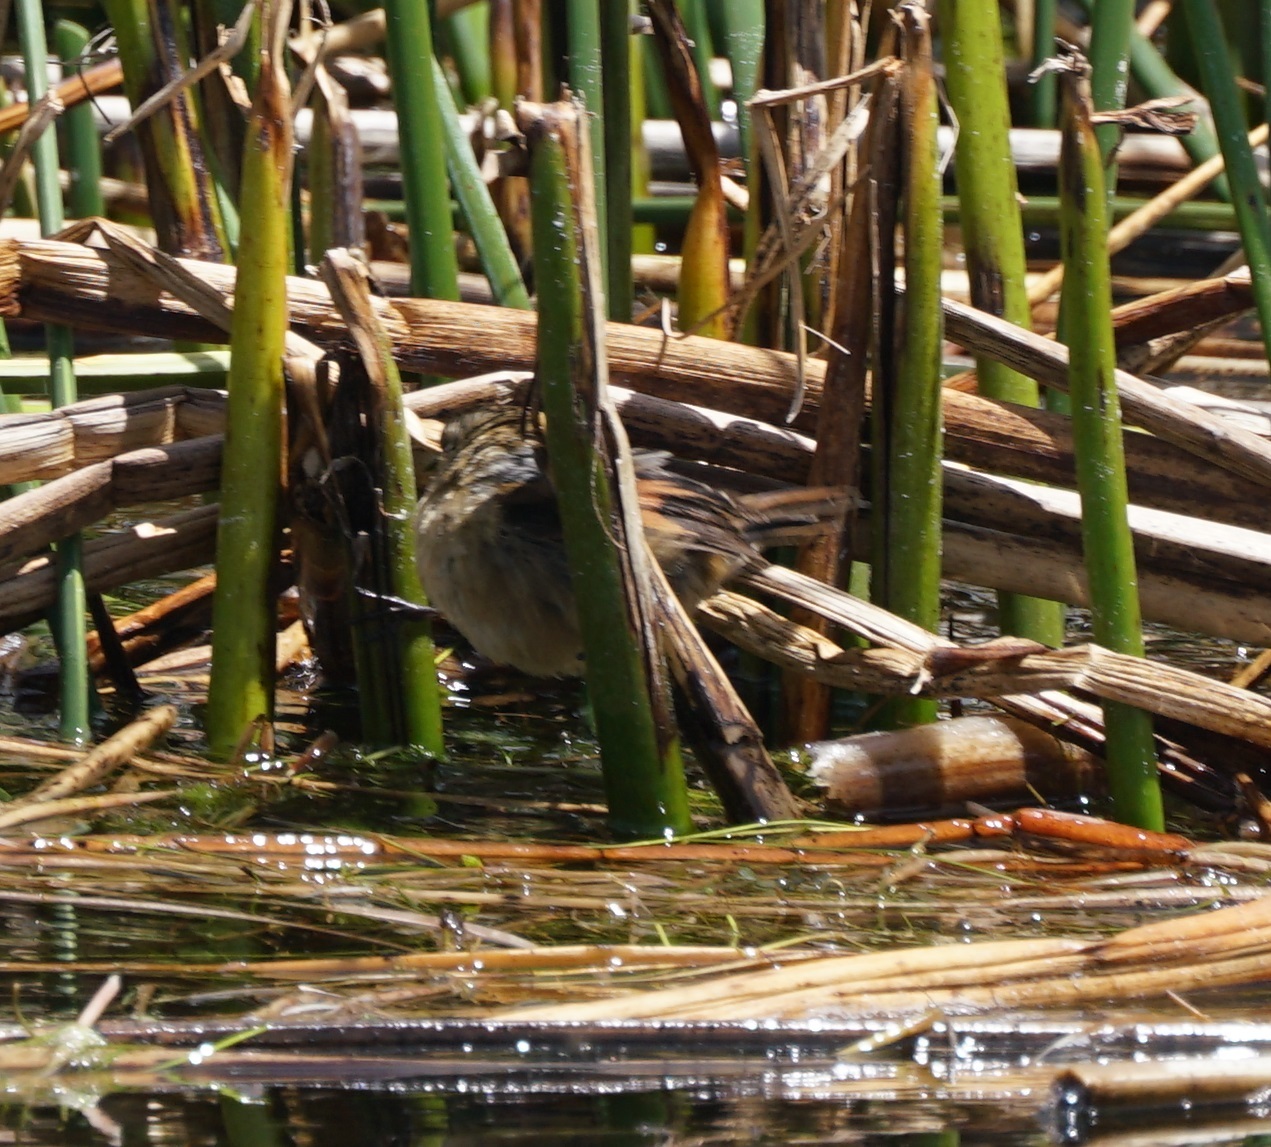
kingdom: Animalia
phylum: Chordata
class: Aves
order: Passeriformes
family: Furnariidae
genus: Phleocryptes
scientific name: Phleocryptes melanops
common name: Wren-like rushbird
